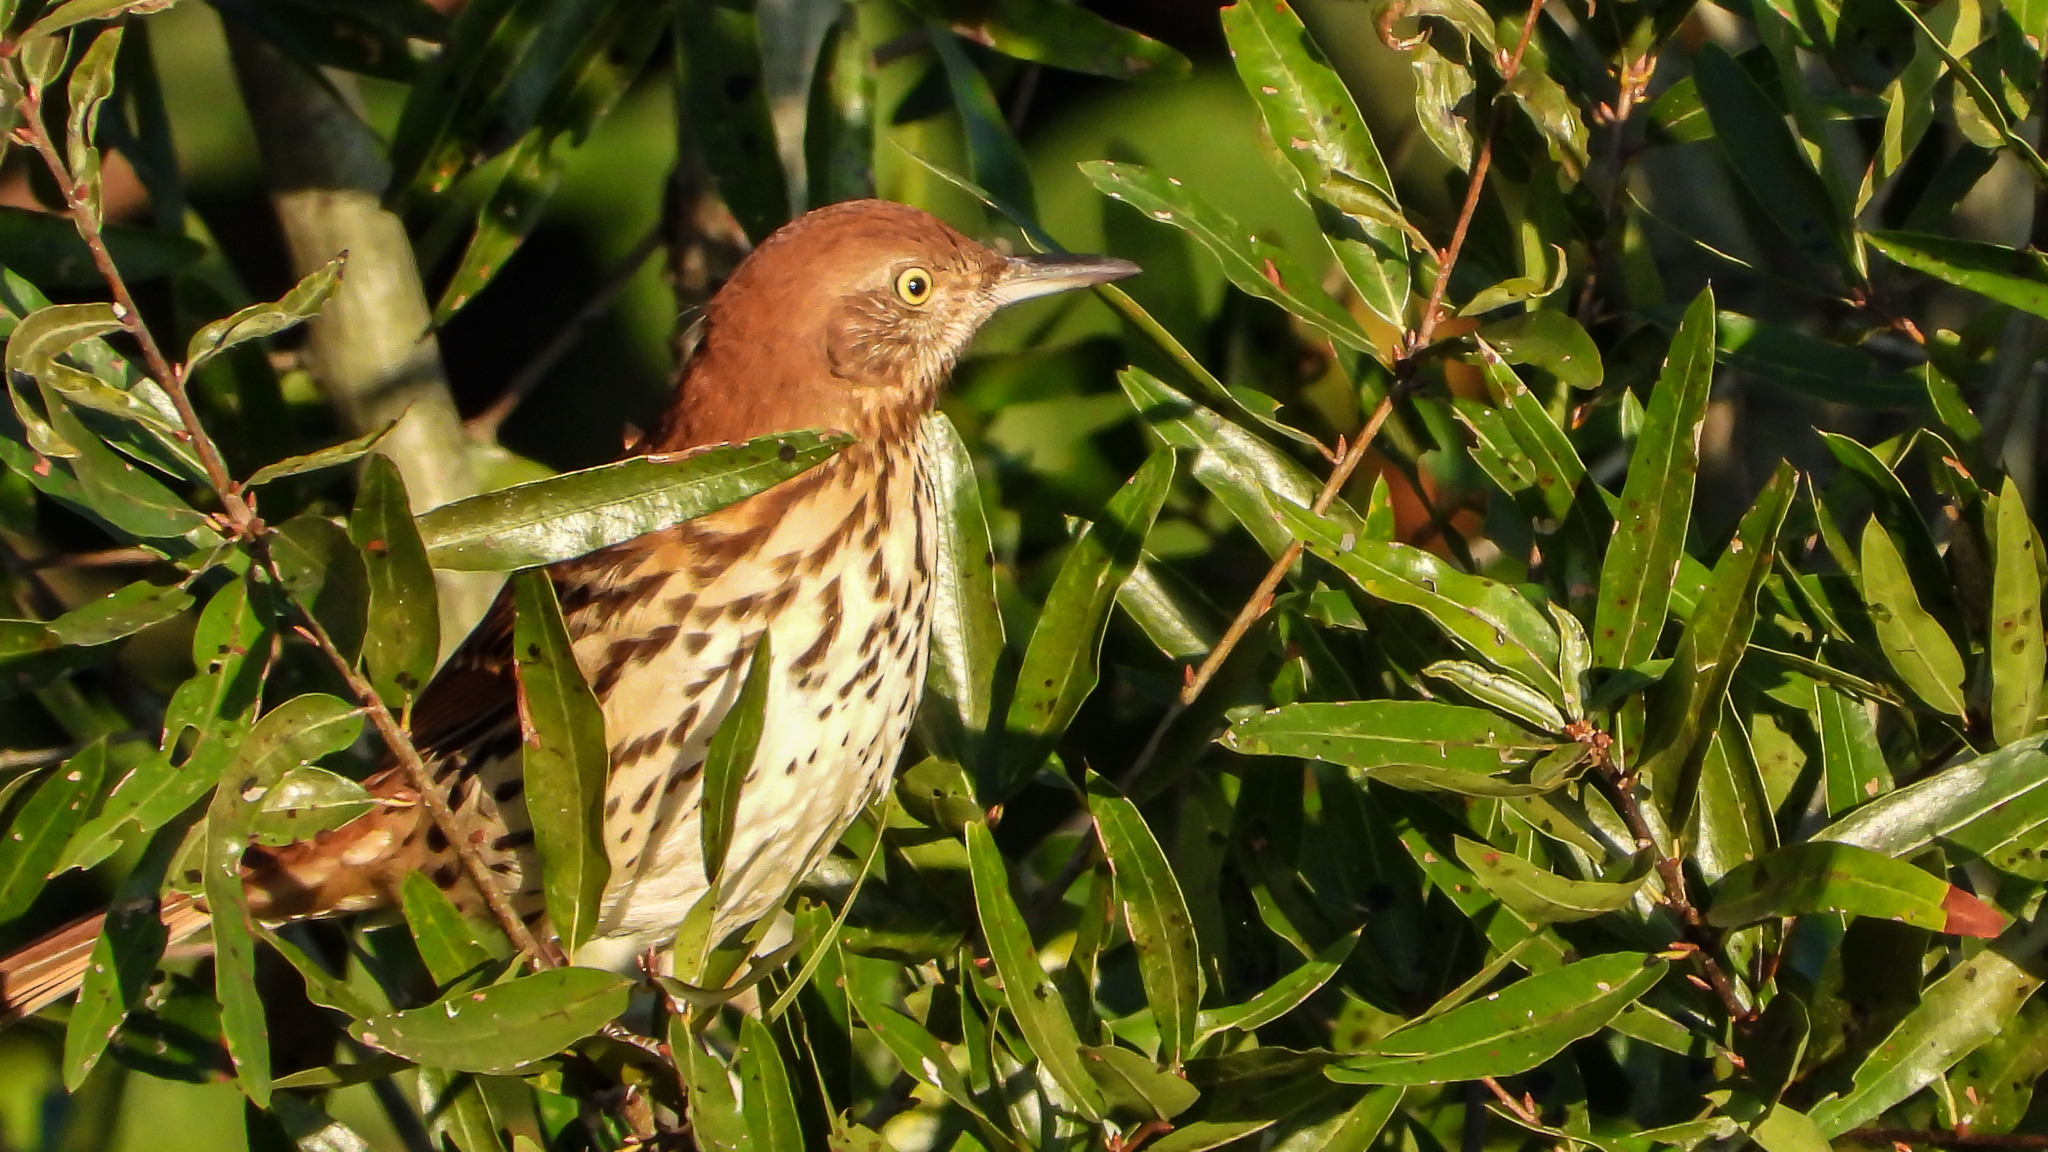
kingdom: Animalia
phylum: Chordata
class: Aves
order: Passeriformes
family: Mimidae
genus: Toxostoma
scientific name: Toxostoma rufum
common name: Brown thrasher
